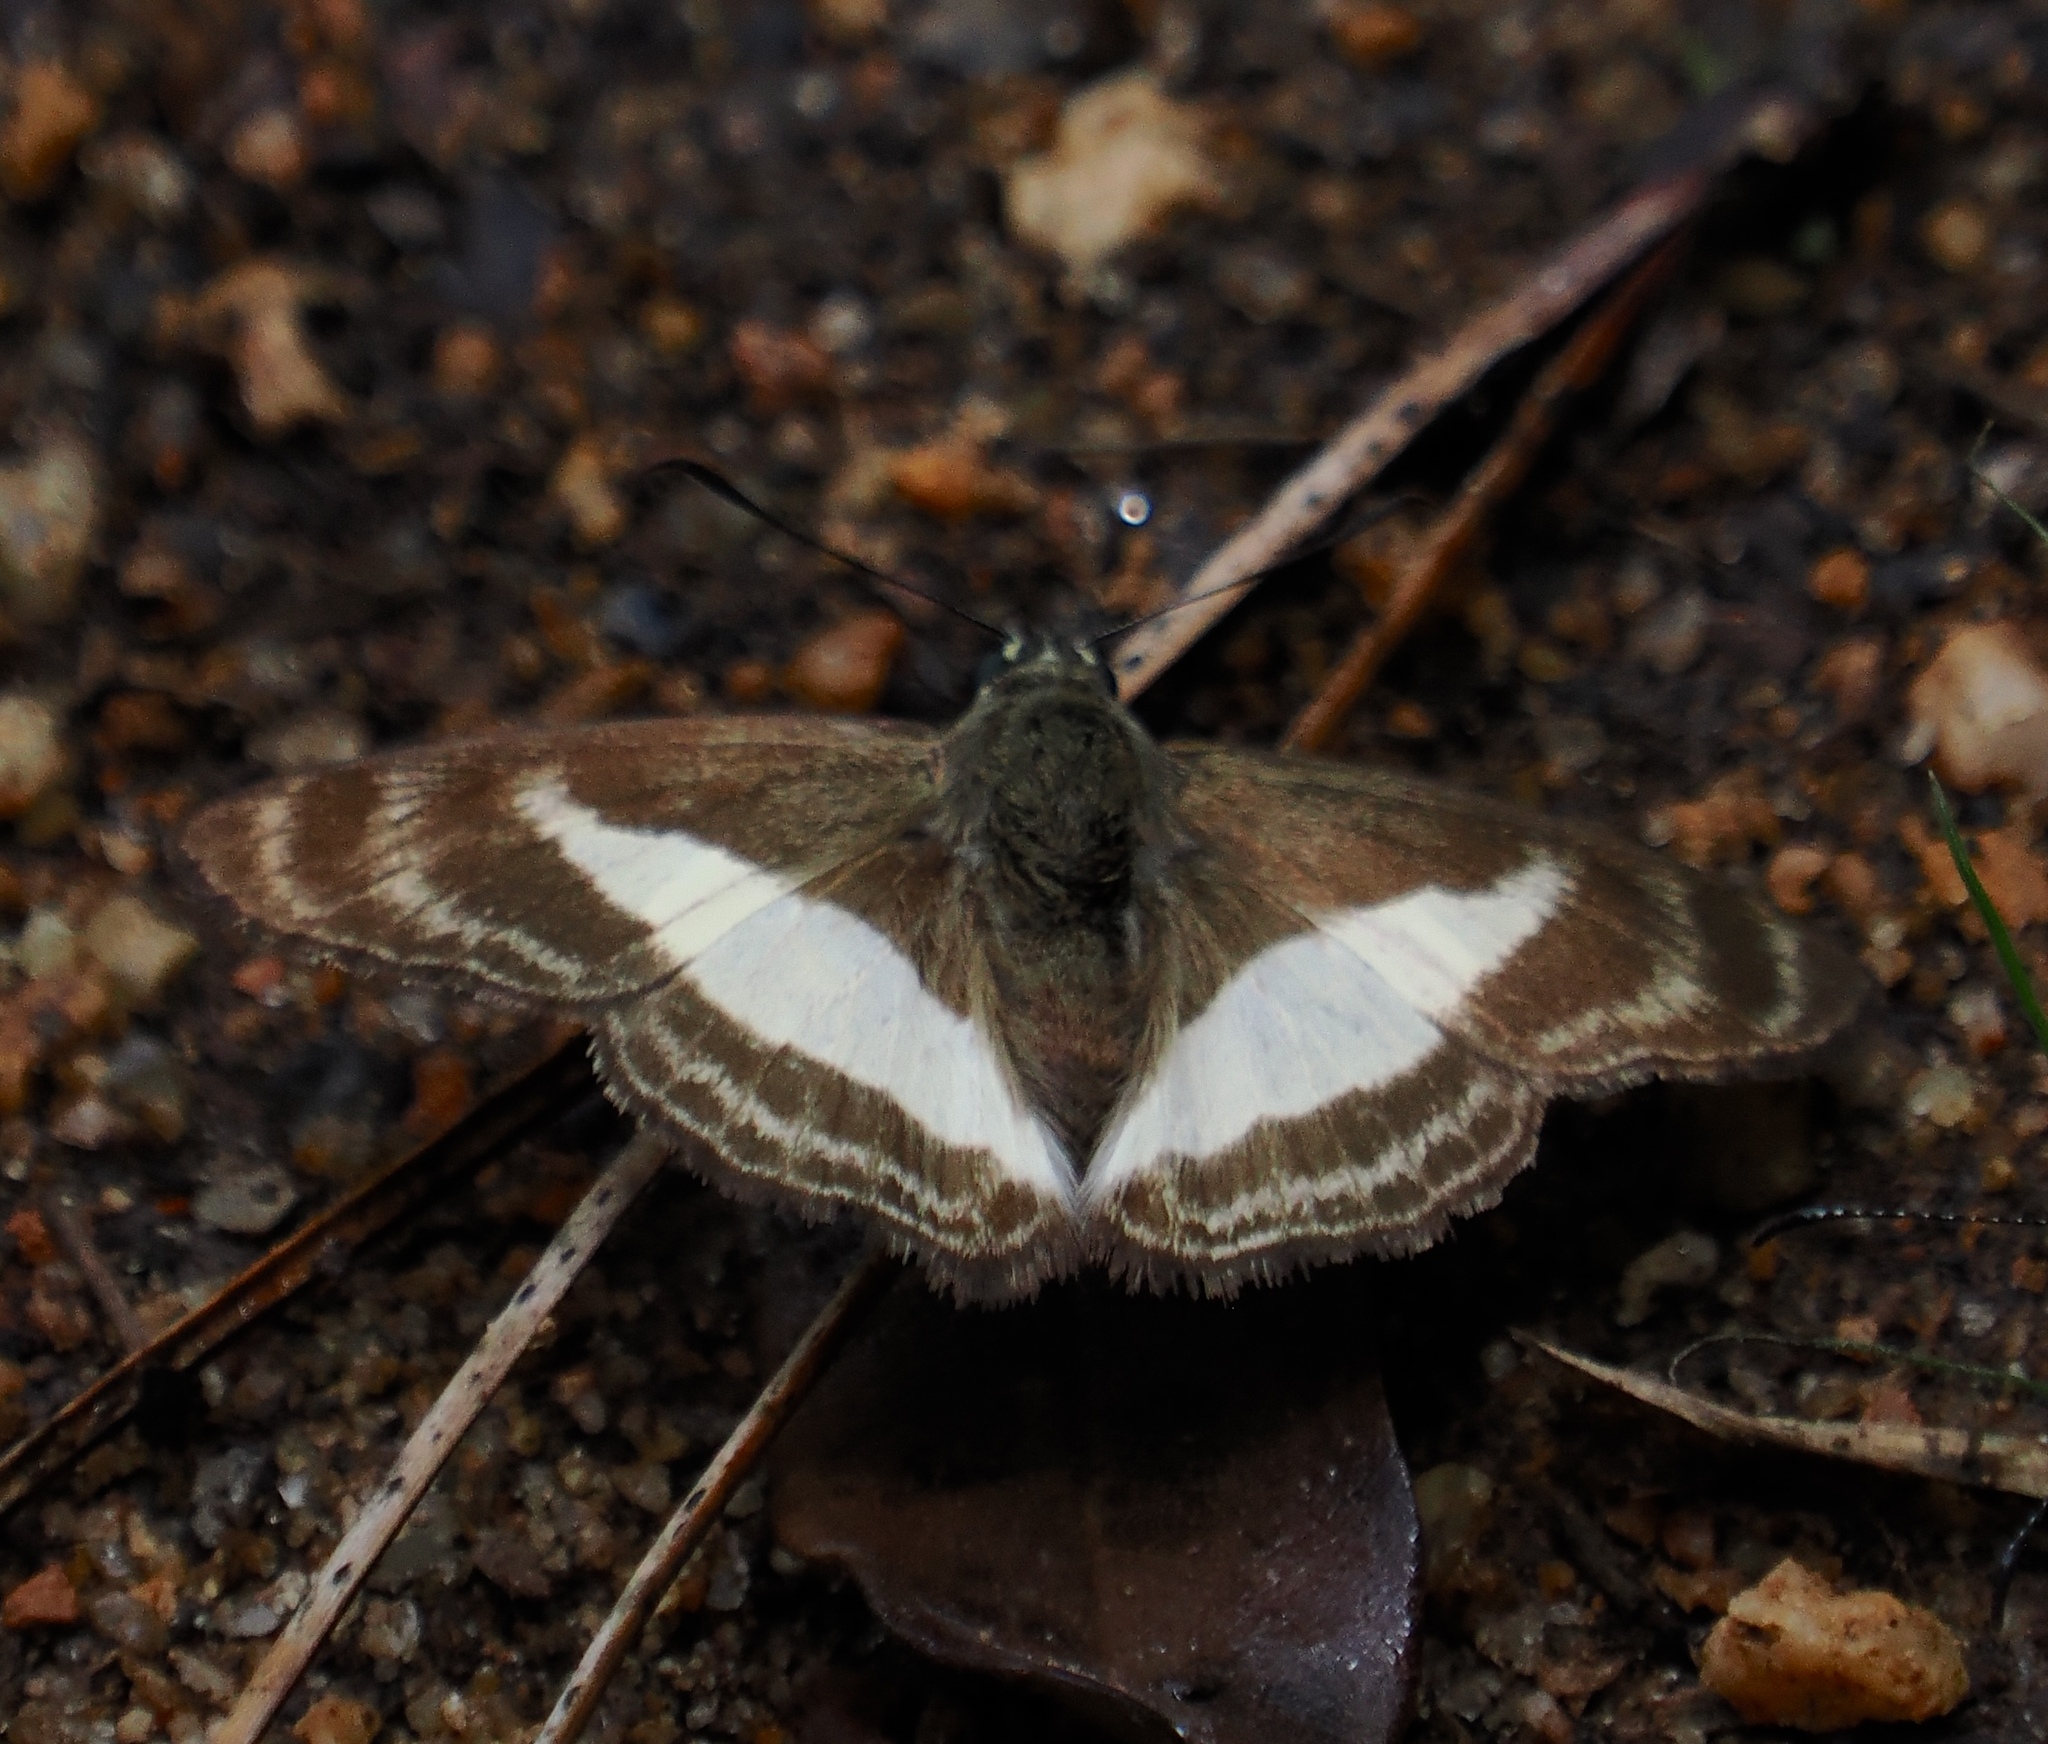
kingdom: Animalia
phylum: Arthropoda
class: Insecta
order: Lepidoptera
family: Hesperiidae
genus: Sophista
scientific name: Sophista aristoteles
